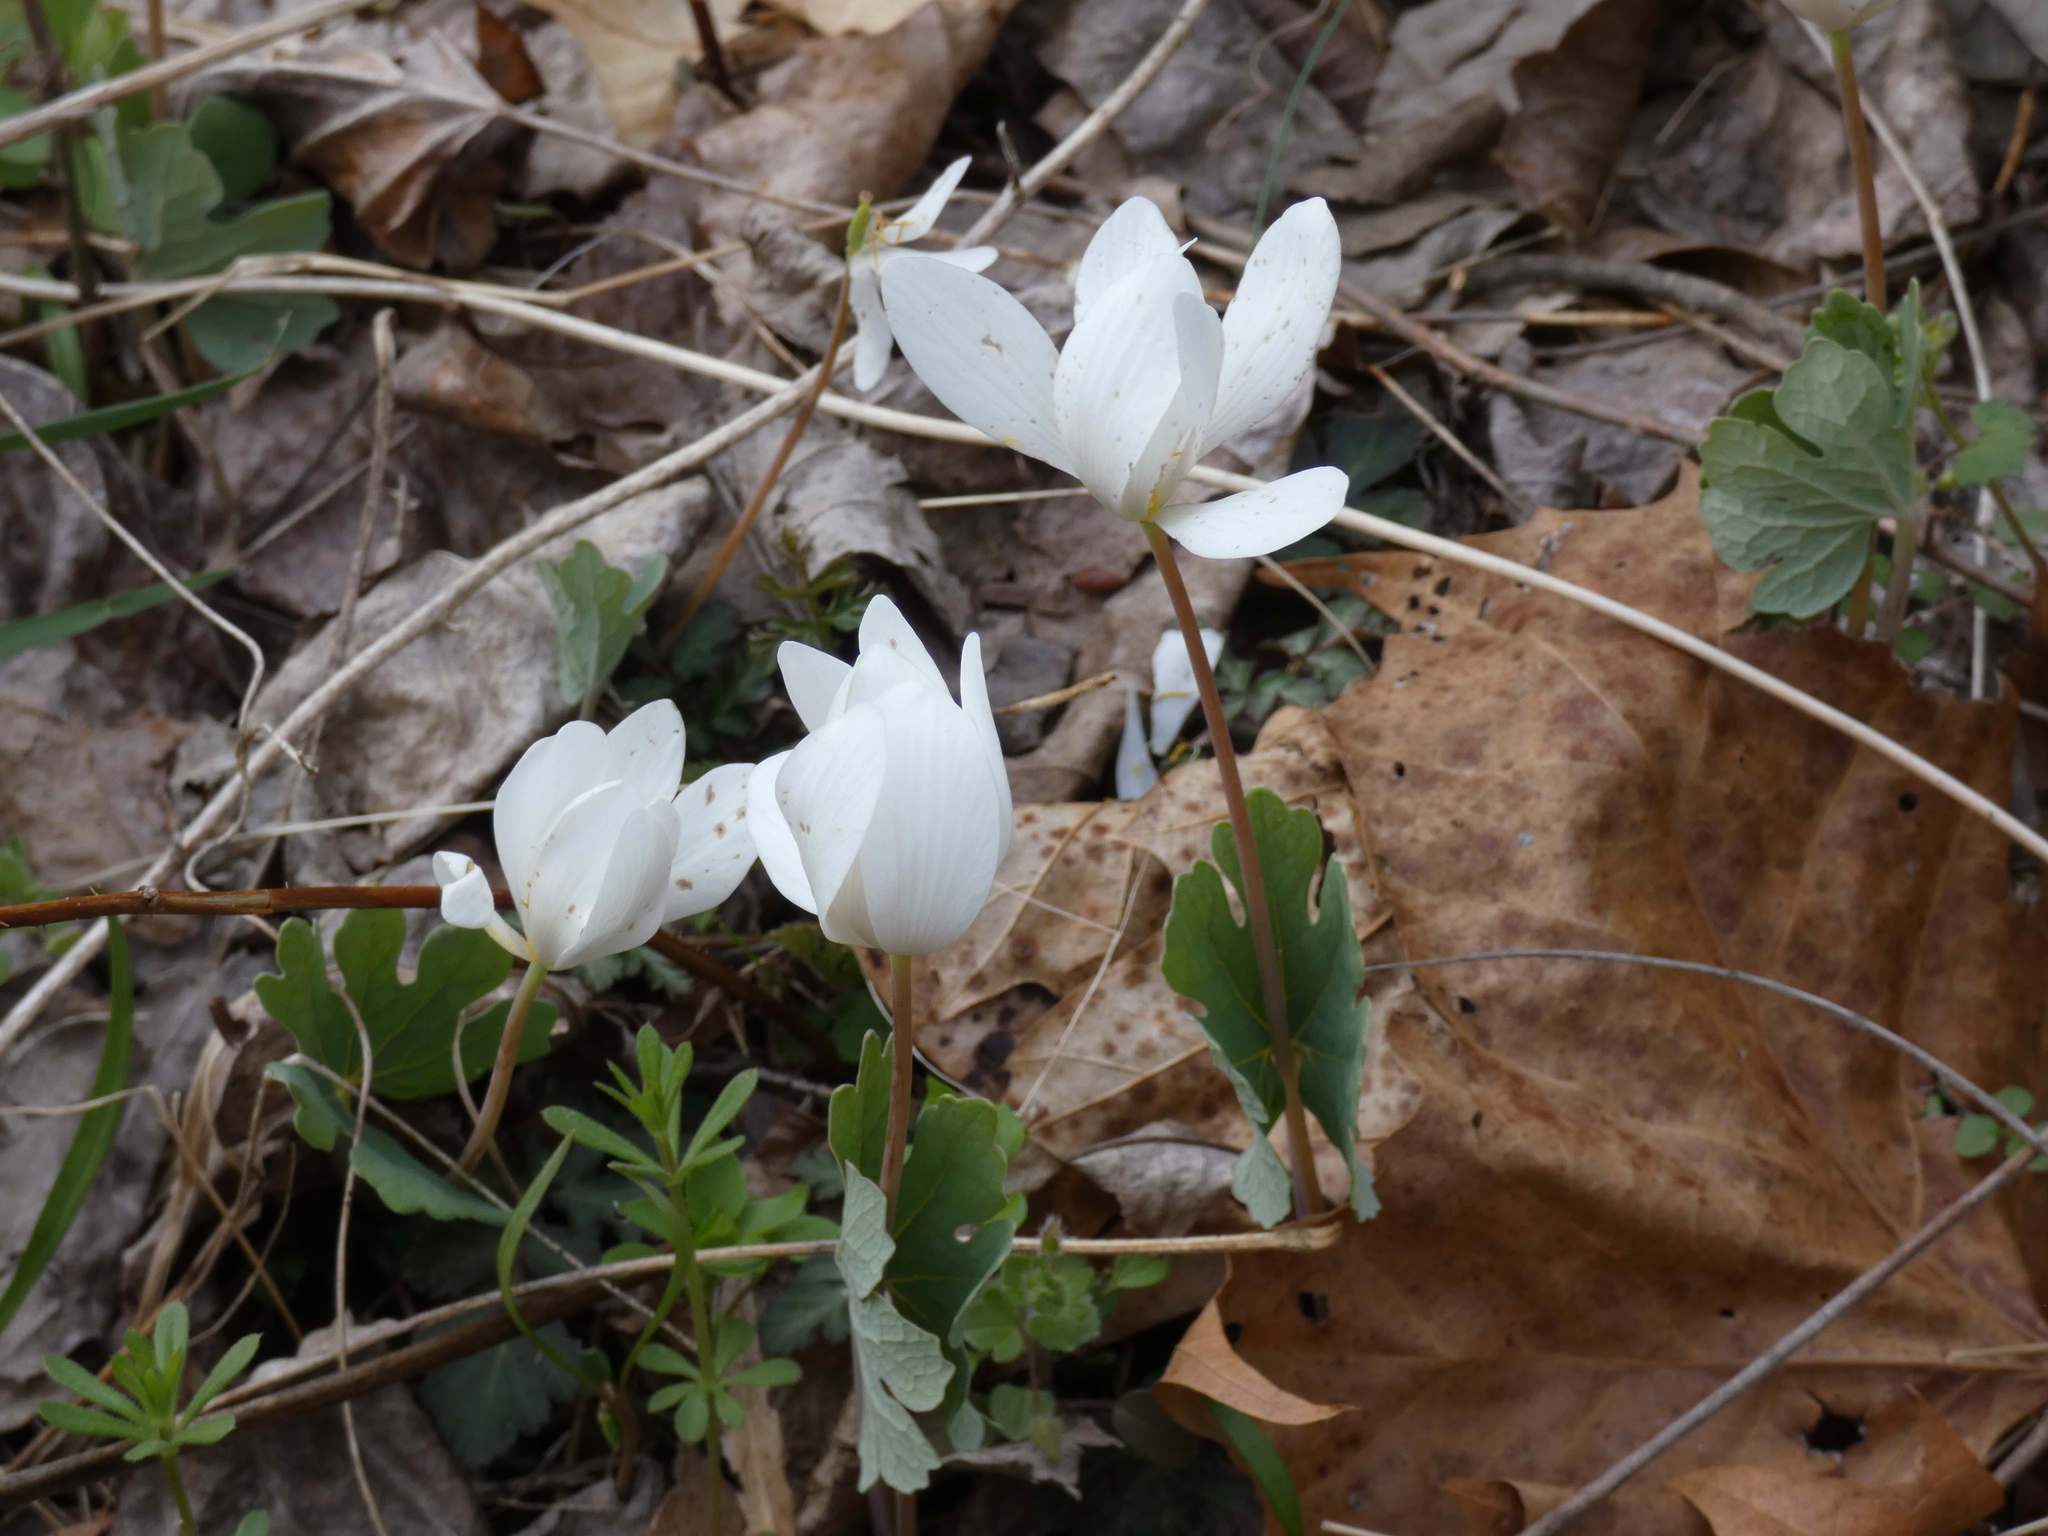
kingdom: Plantae
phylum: Tracheophyta
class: Magnoliopsida
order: Ranunculales
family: Papaveraceae
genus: Sanguinaria
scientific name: Sanguinaria canadensis
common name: Bloodroot
